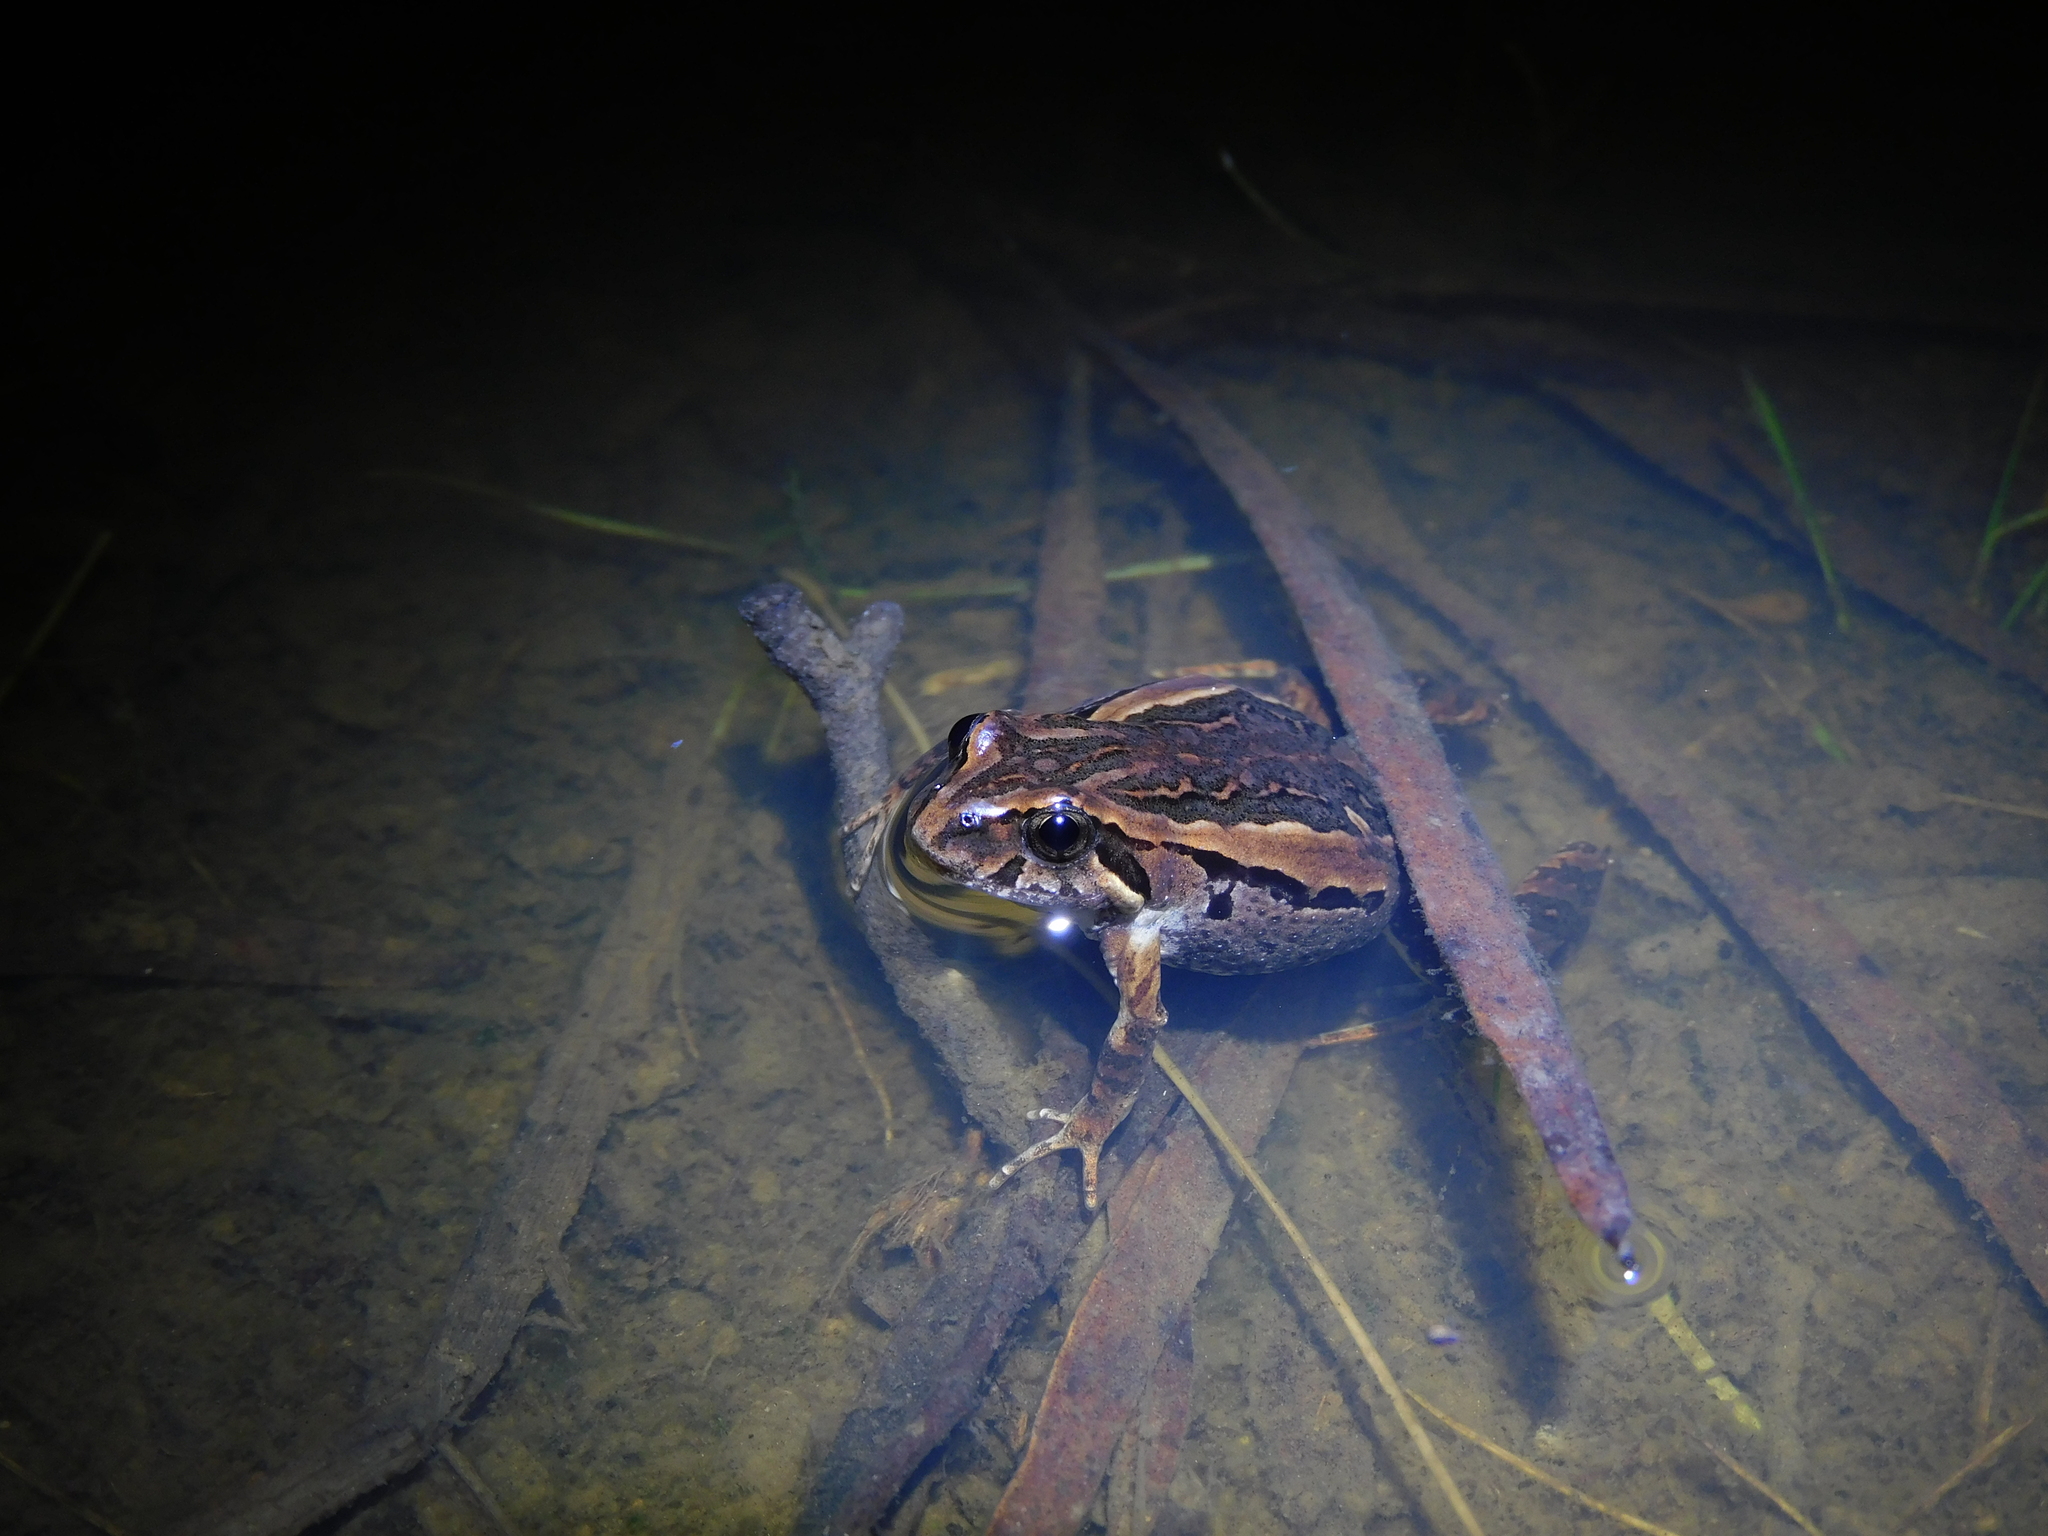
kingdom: Animalia
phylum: Chordata
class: Amphibia
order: Anura
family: Myobatrachidae
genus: Crinia
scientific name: Crinia signifera
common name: Brown froglet
